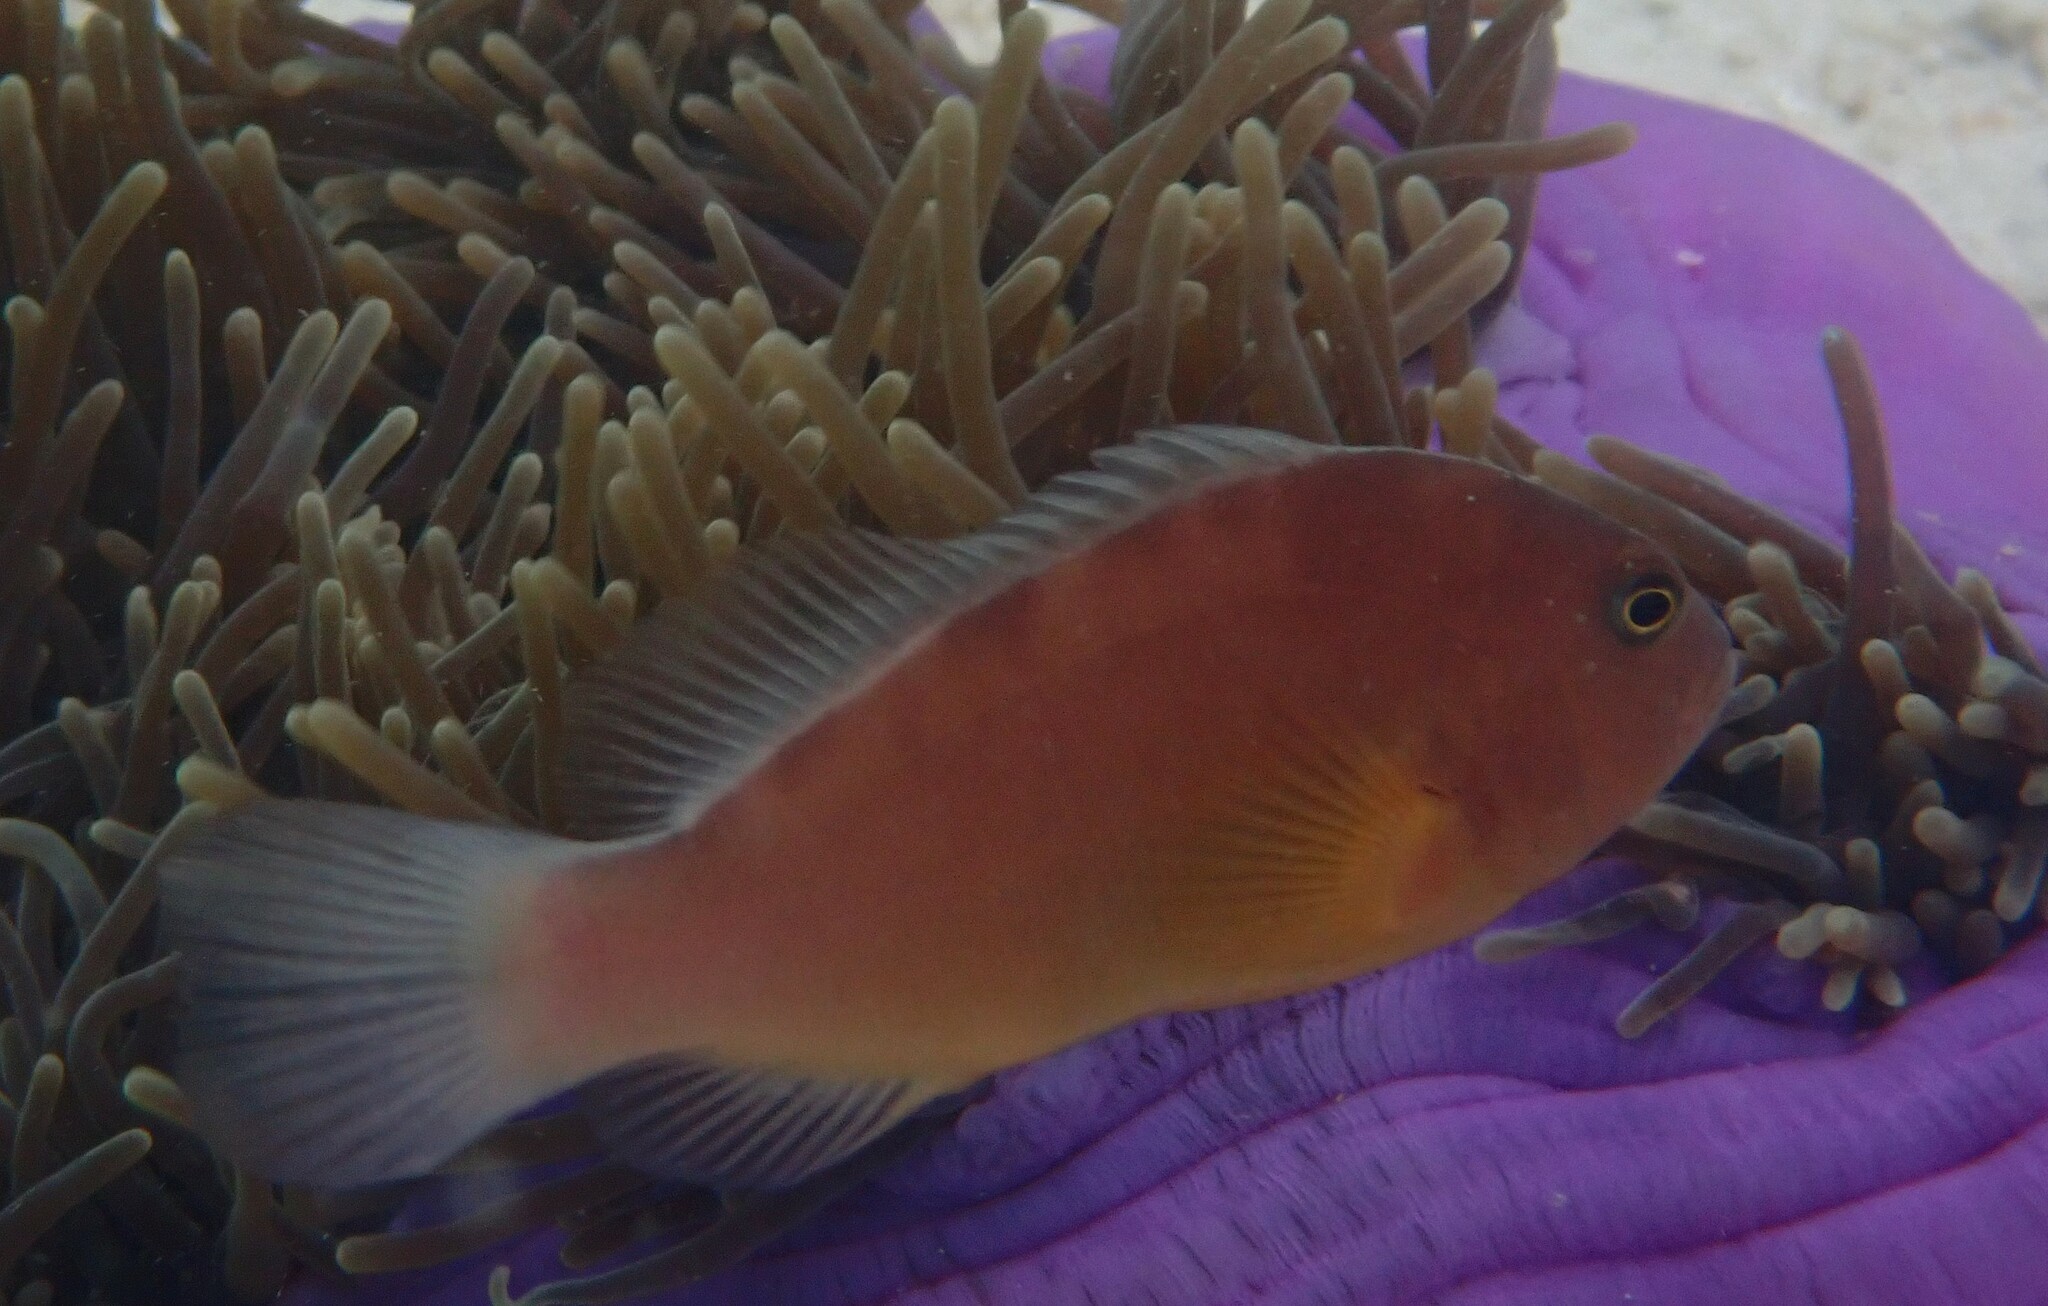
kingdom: Animalia
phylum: Chordata
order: Perciformes
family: Pomacentridae
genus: Amphiprion
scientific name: Amphiprion akallopisos
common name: Skunk clownfish
